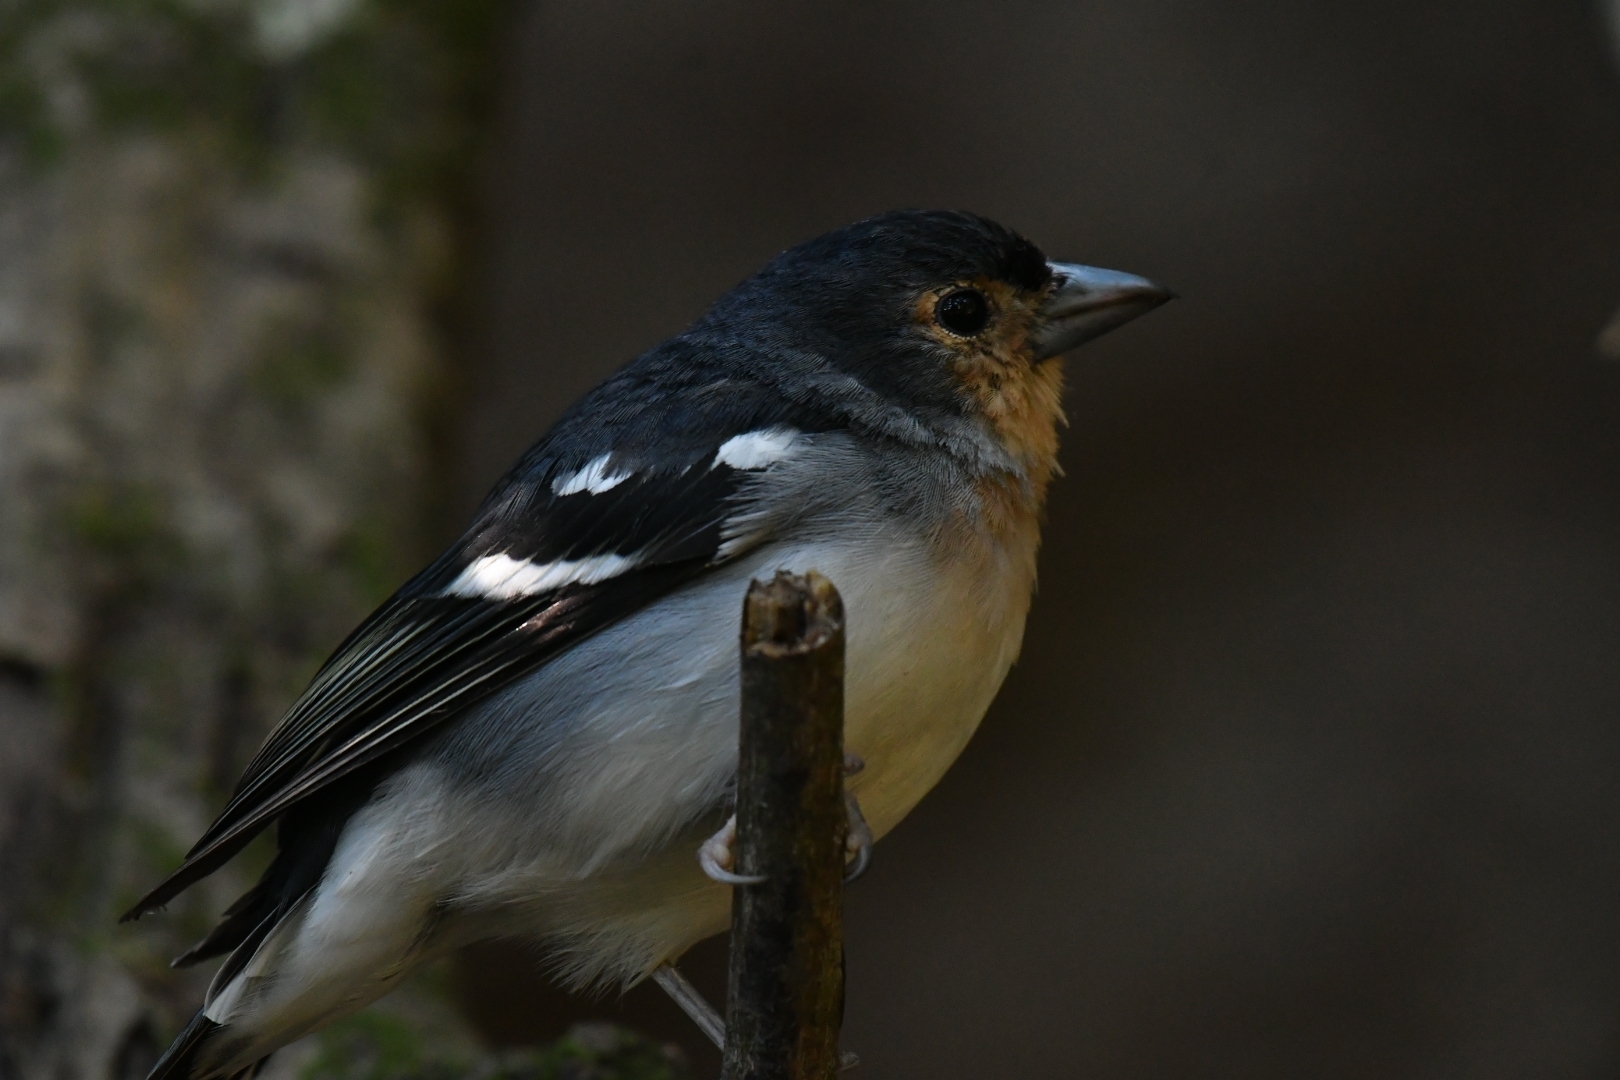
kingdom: Animalia
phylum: Chordata
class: Aves
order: Passeriformes
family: Fringillidae
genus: Fringilla
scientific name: Fringilla canariensis
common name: Canary islands chaffinch
